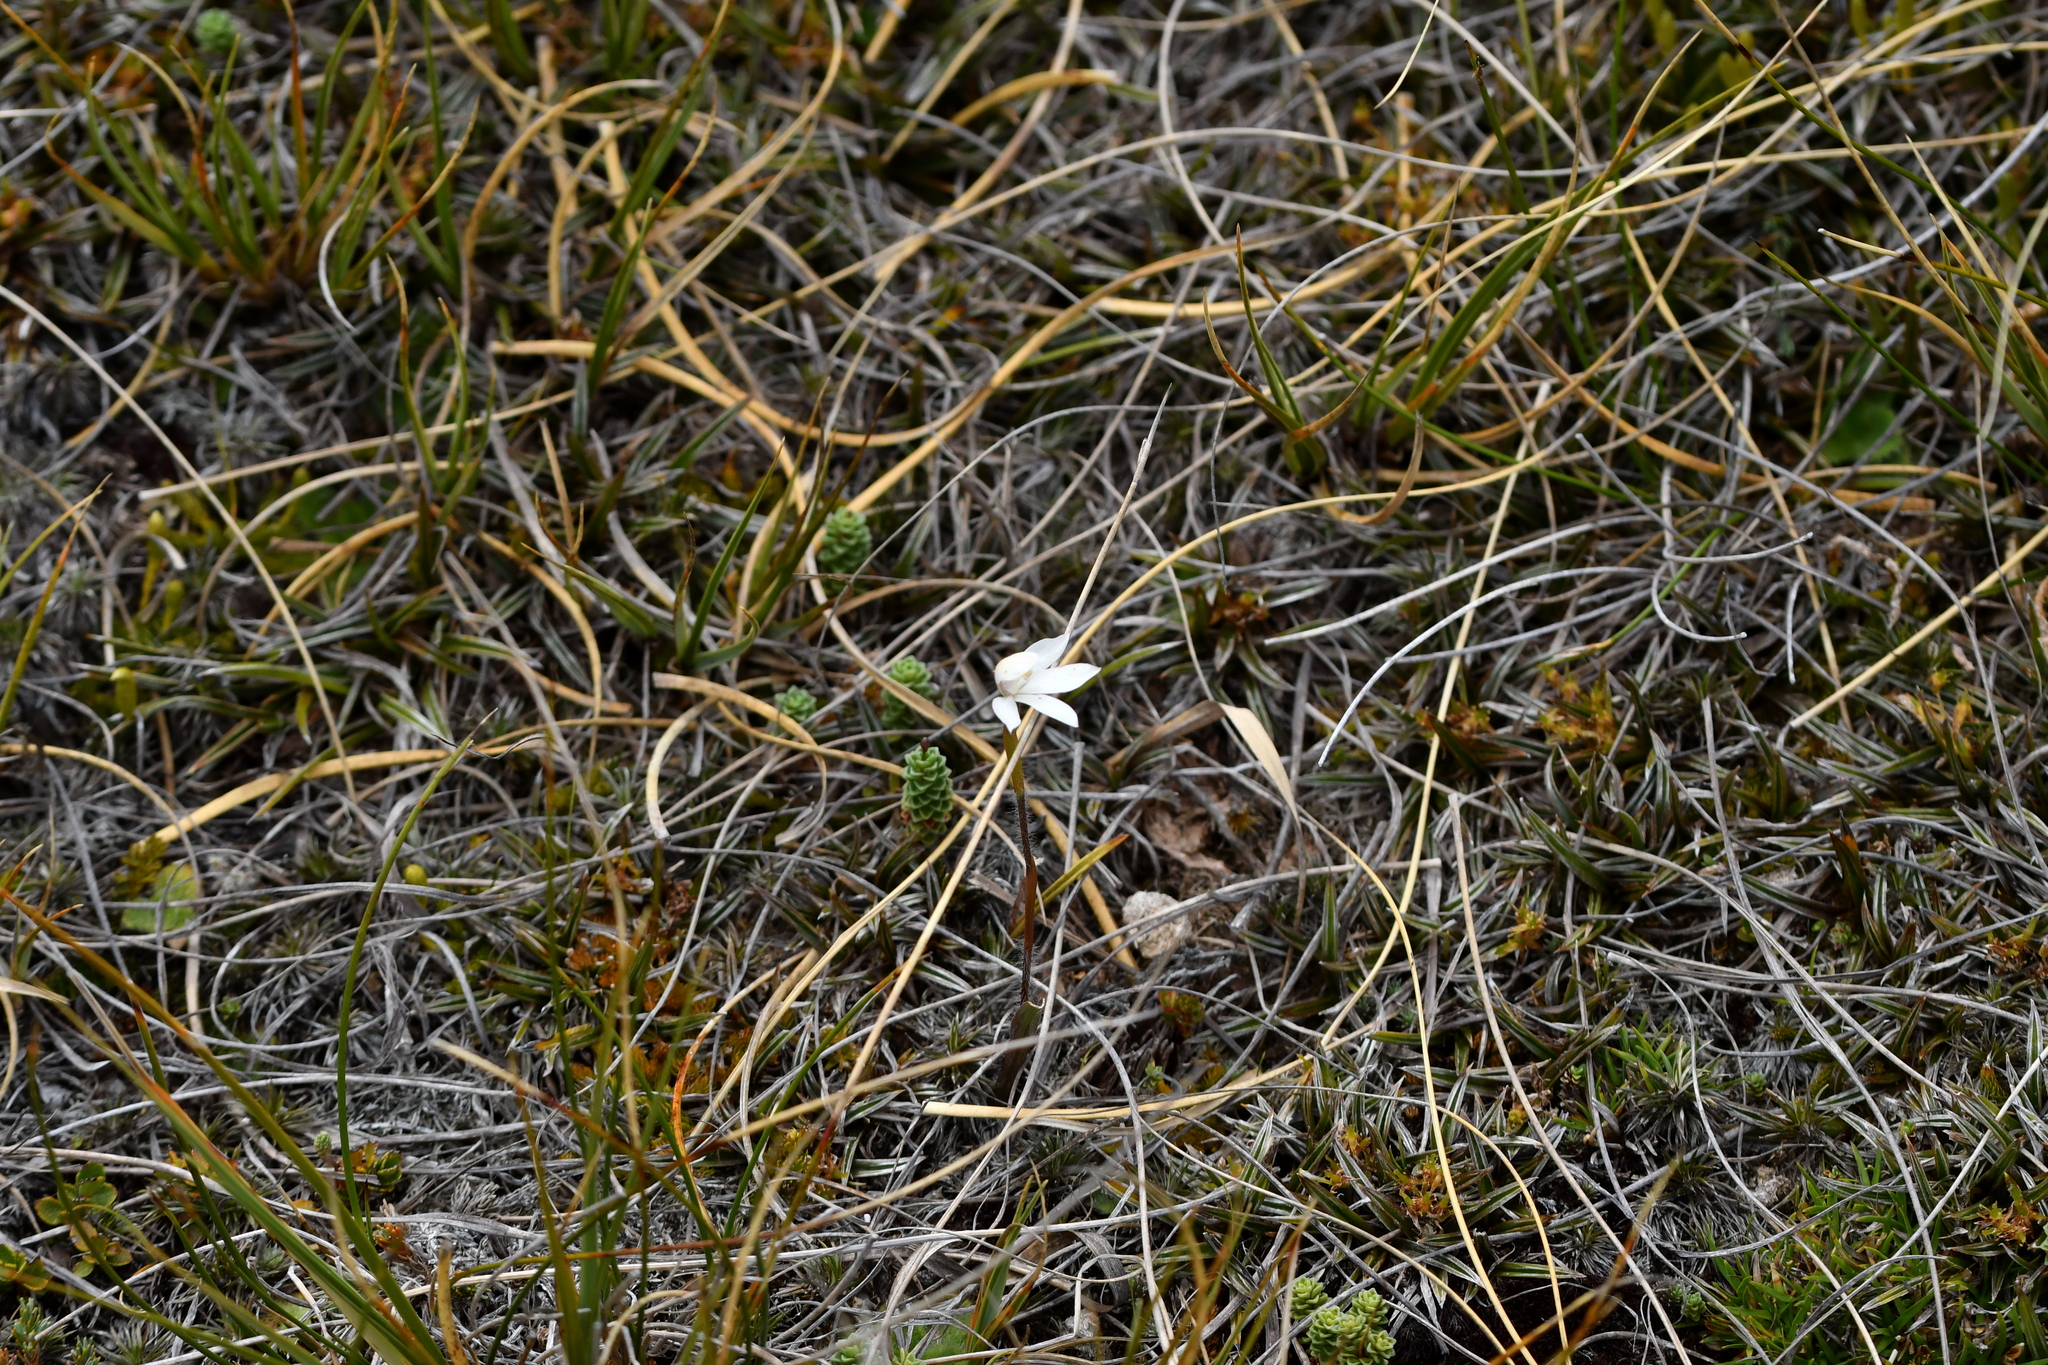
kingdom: Plantae
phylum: Tracheophyta
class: Liliopsida
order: Asparagales
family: Orchidaceae
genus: Caladenia
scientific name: Caladenia lyallii
